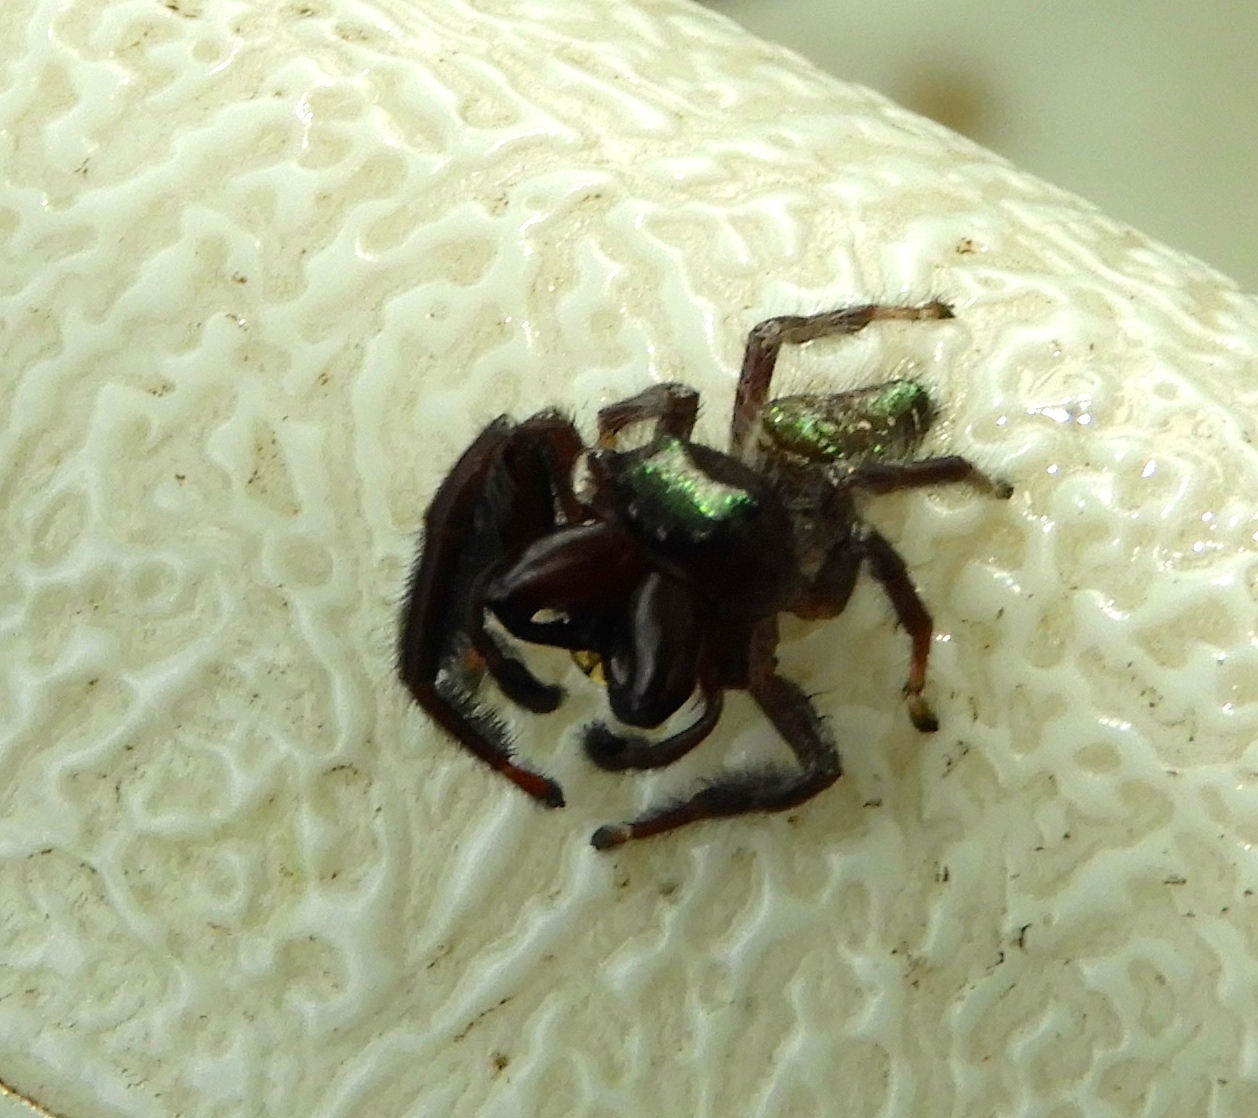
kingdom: Animalia
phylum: Arthropoda
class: Arachnida
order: Araneae
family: Salticidae
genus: Paraphidippus
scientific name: Paraphidippus fartilis
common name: Jumping spiders
